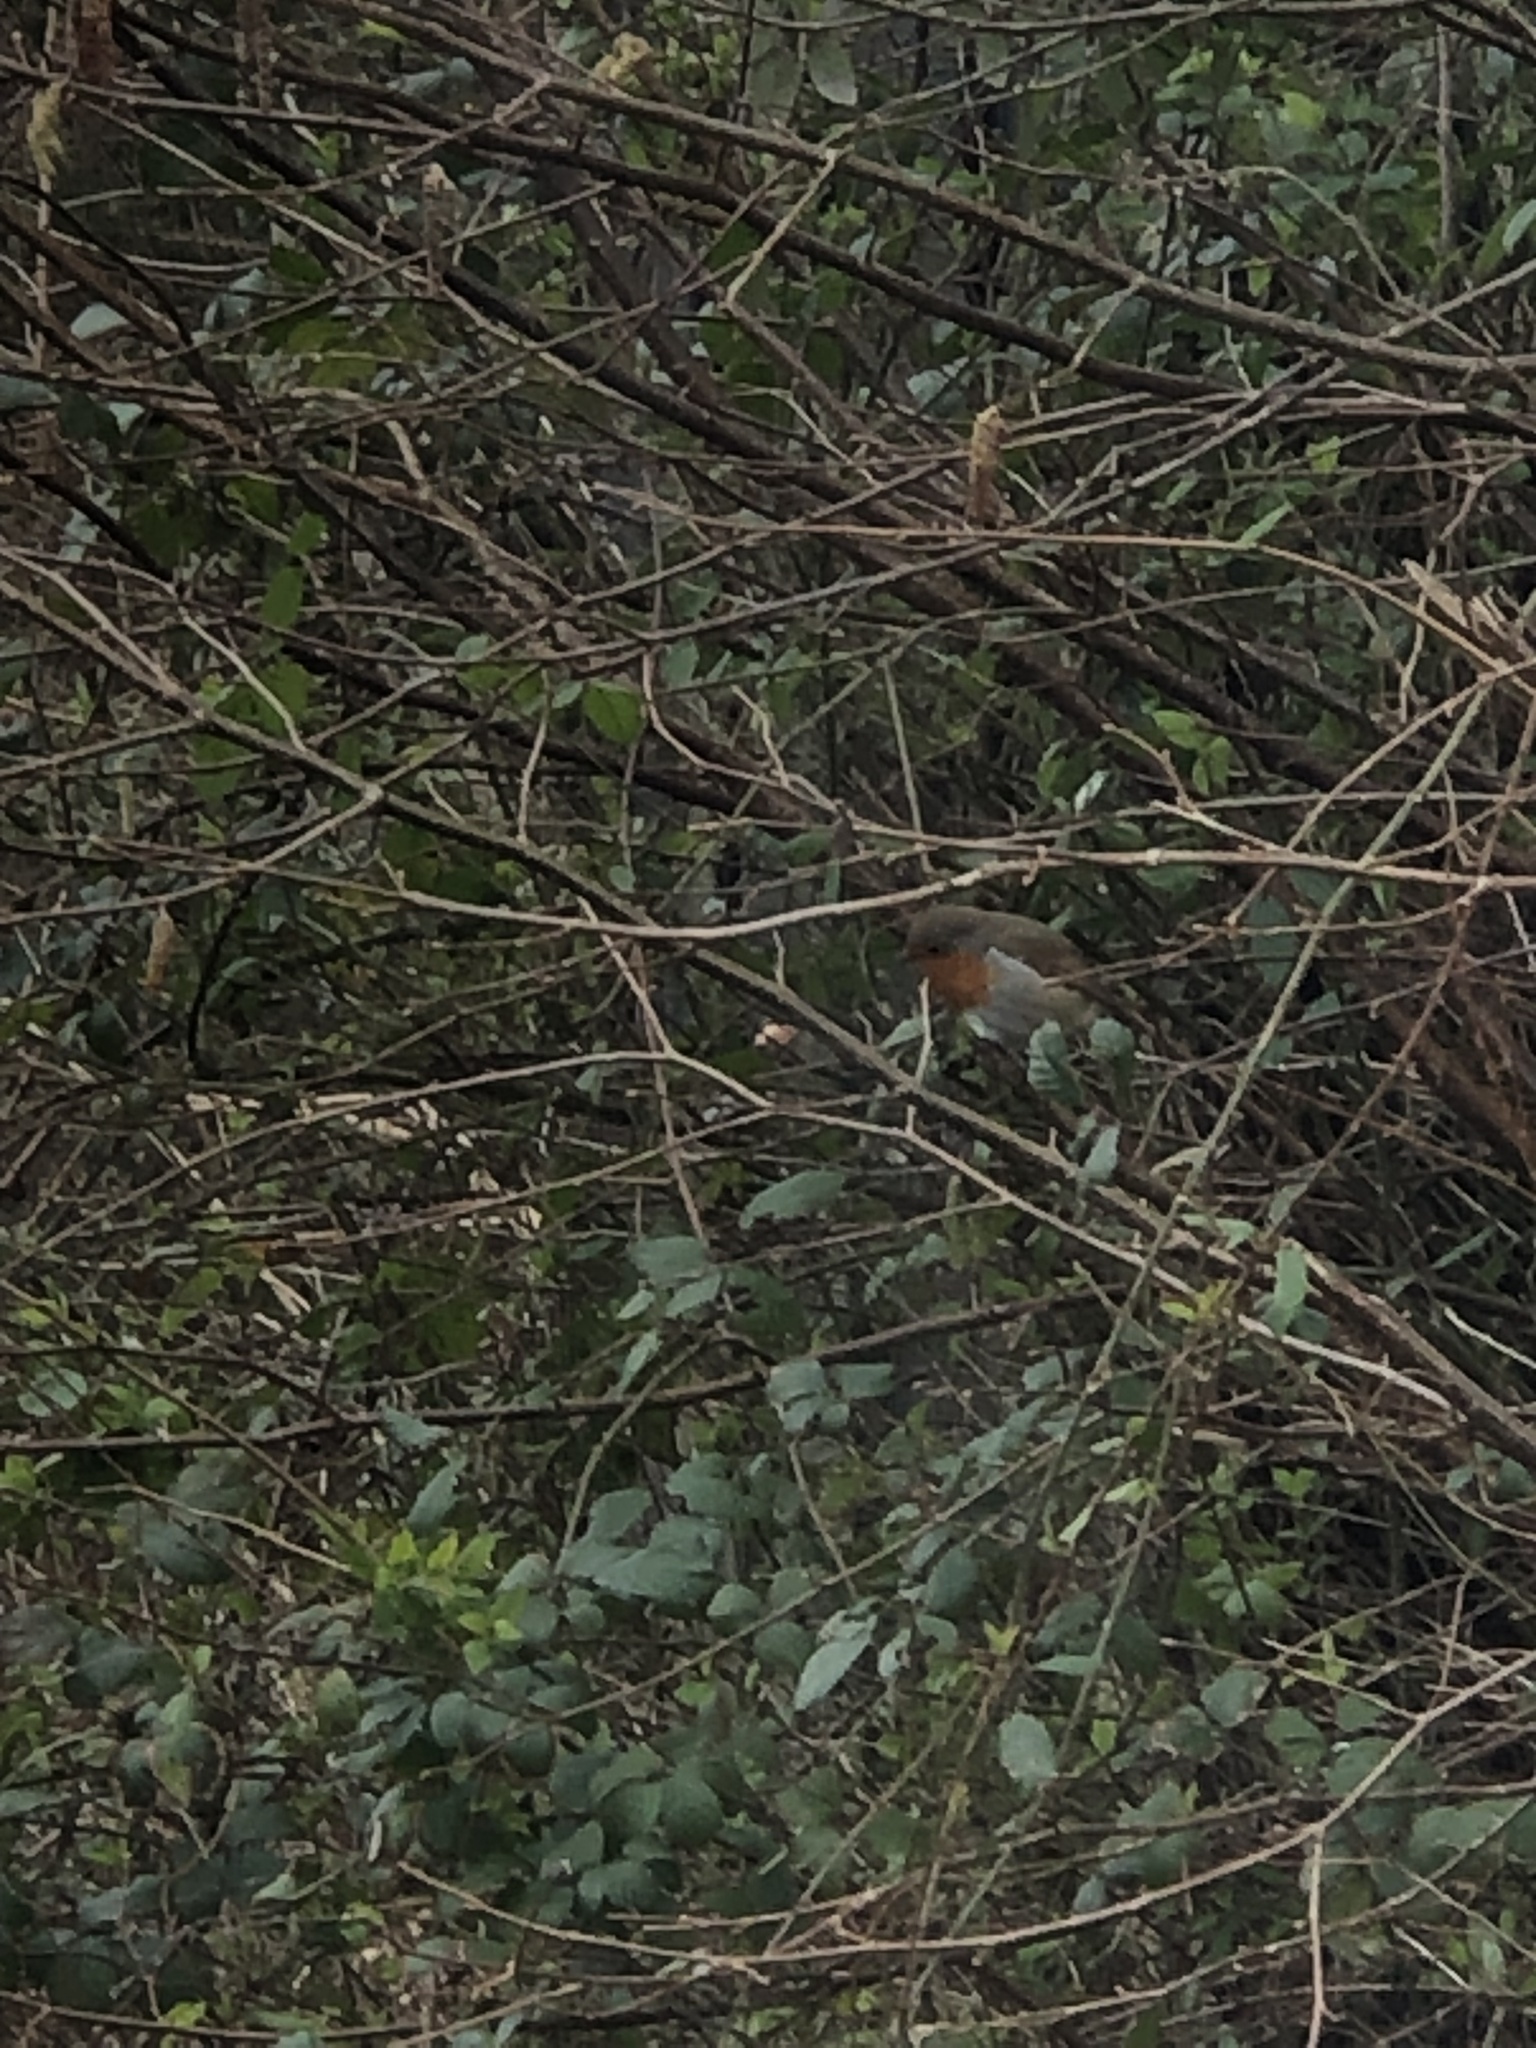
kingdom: Animalia
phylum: Chordata
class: Aves
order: Passeriformes
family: Muscicapidae
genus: Erithacus
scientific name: Erithacus rubecula
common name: European robin
